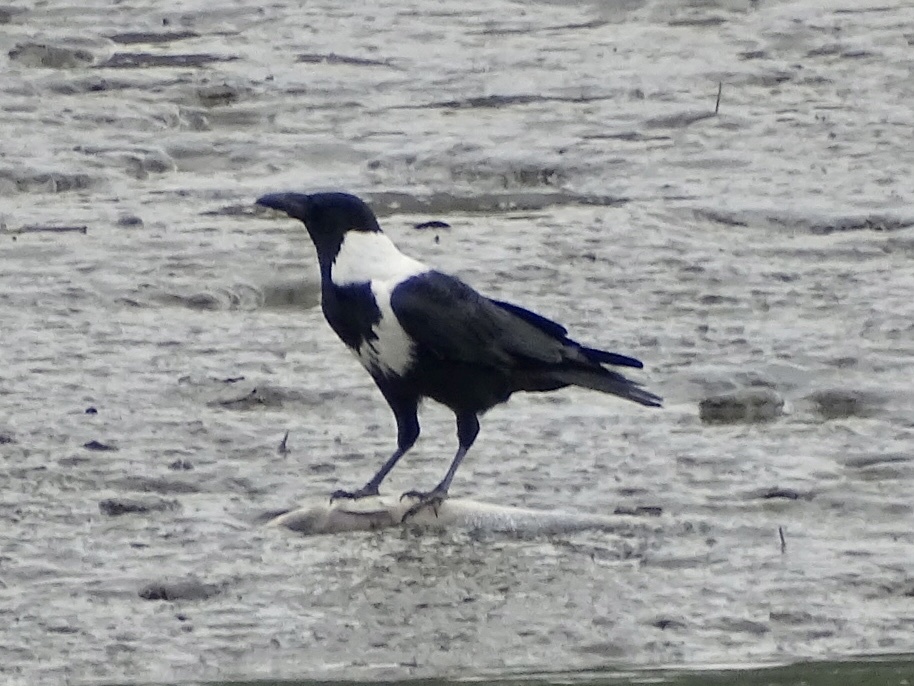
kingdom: Animalia
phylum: Chordata
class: Aves
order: Passeriformes
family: Corvidae
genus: Corvus
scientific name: Corvus pectoralis
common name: Collared crow
